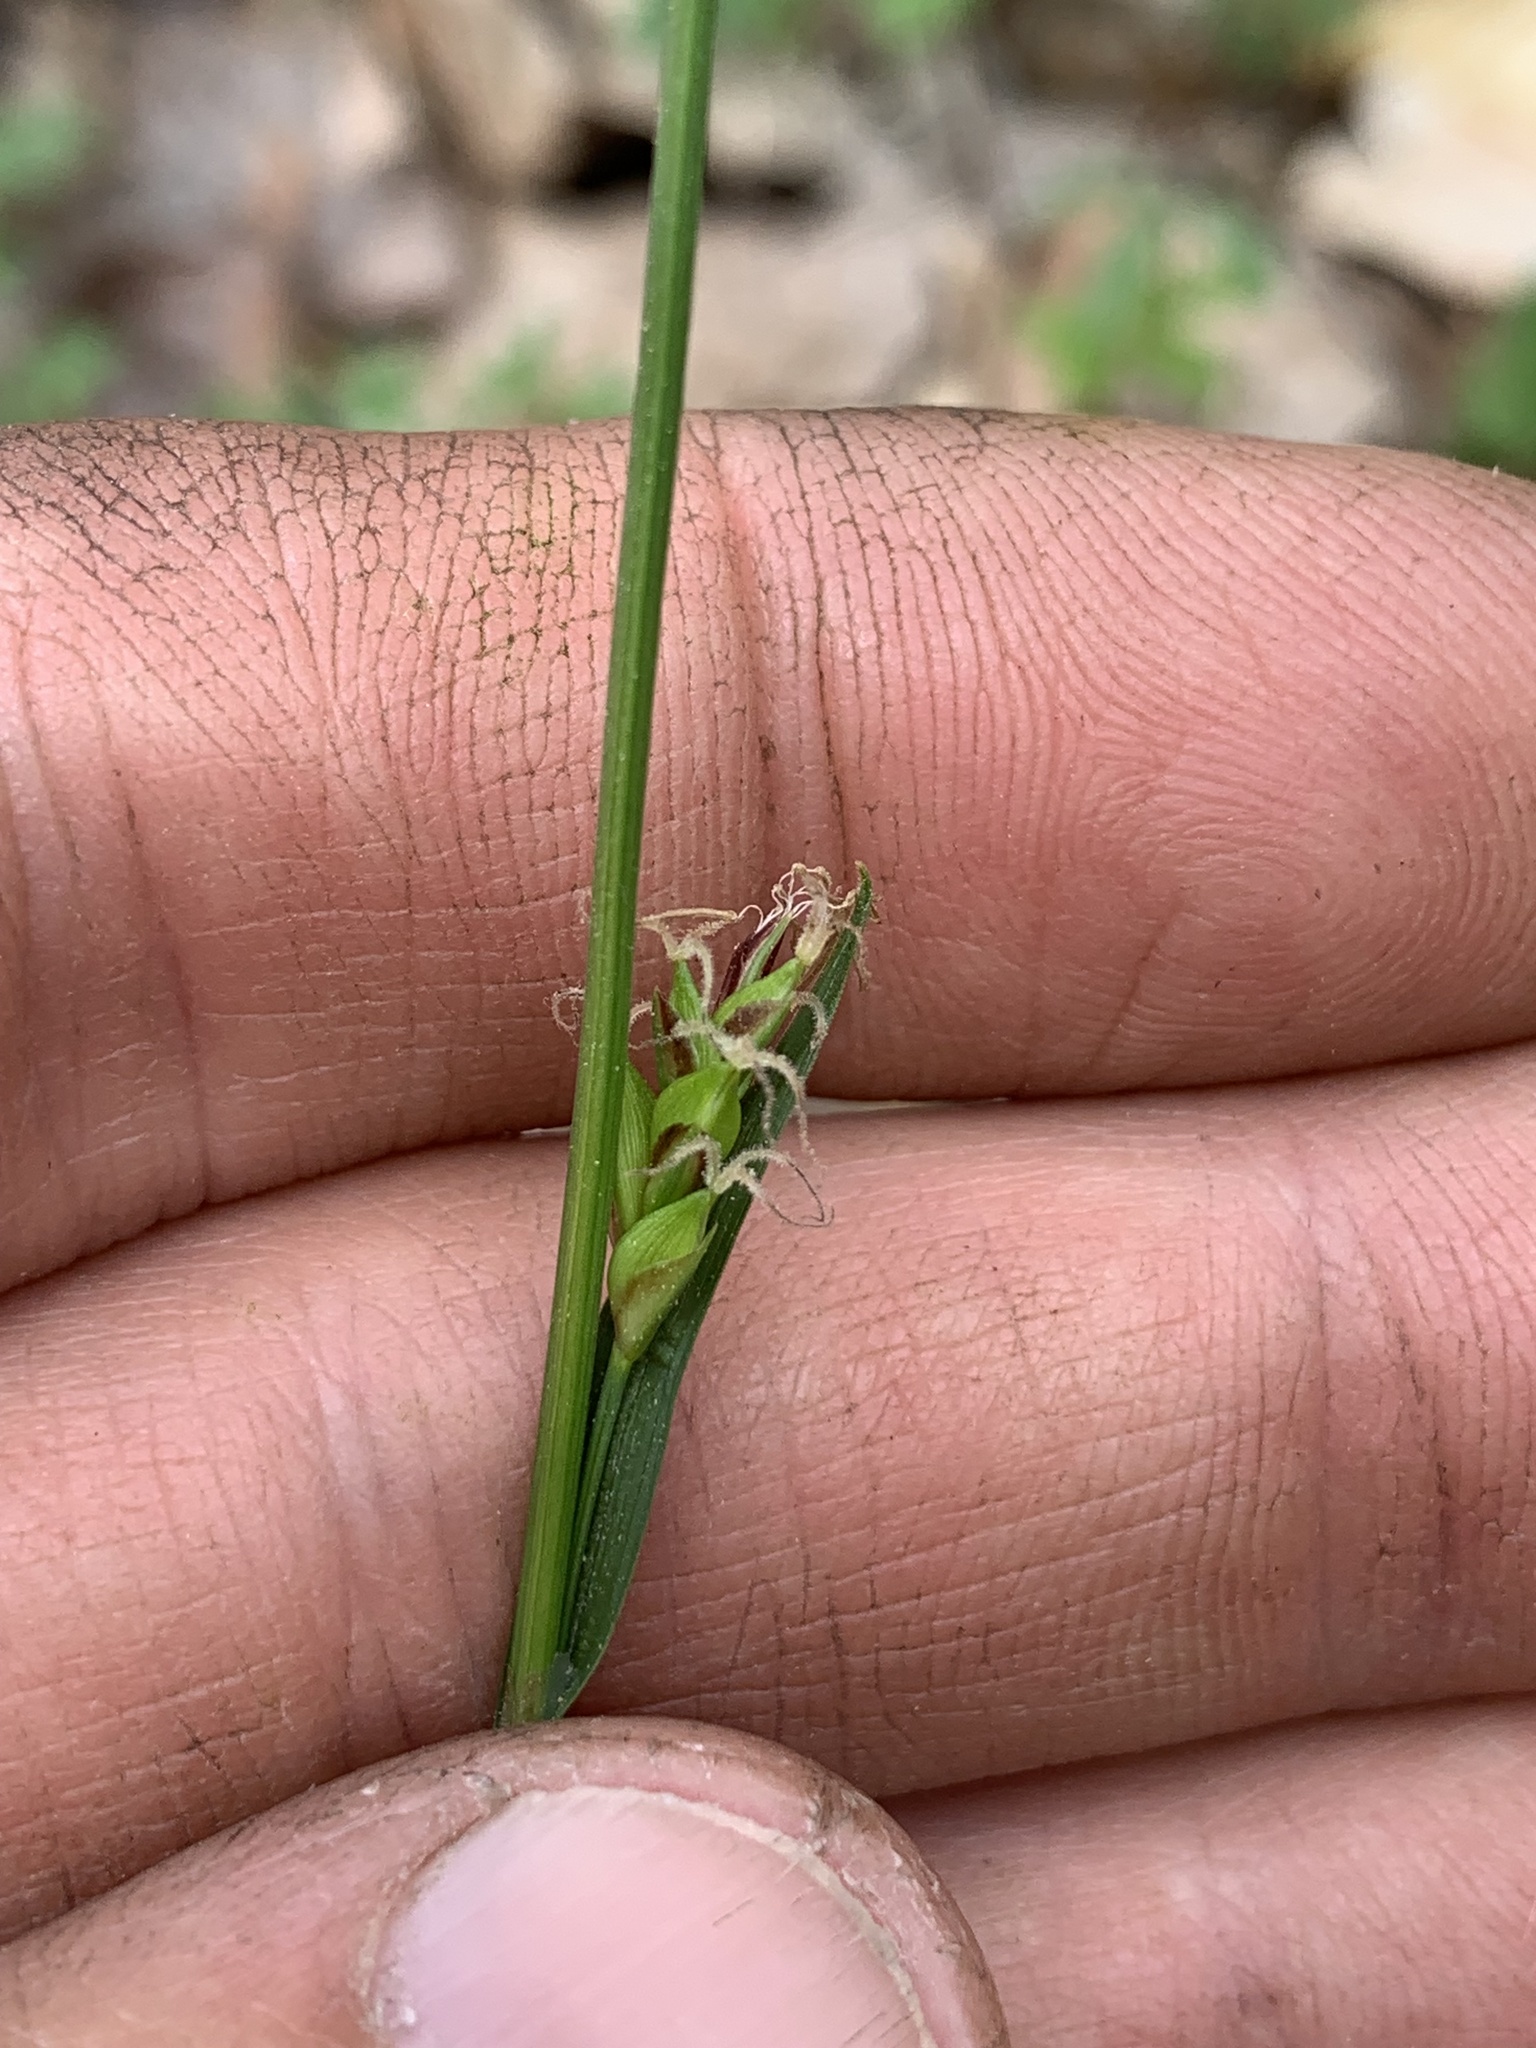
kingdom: Plantae
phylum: Tracheophyta
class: Liliopsida
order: Poales
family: Cyperaceae
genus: Carex
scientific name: Carex careyana
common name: Carey's sedge
